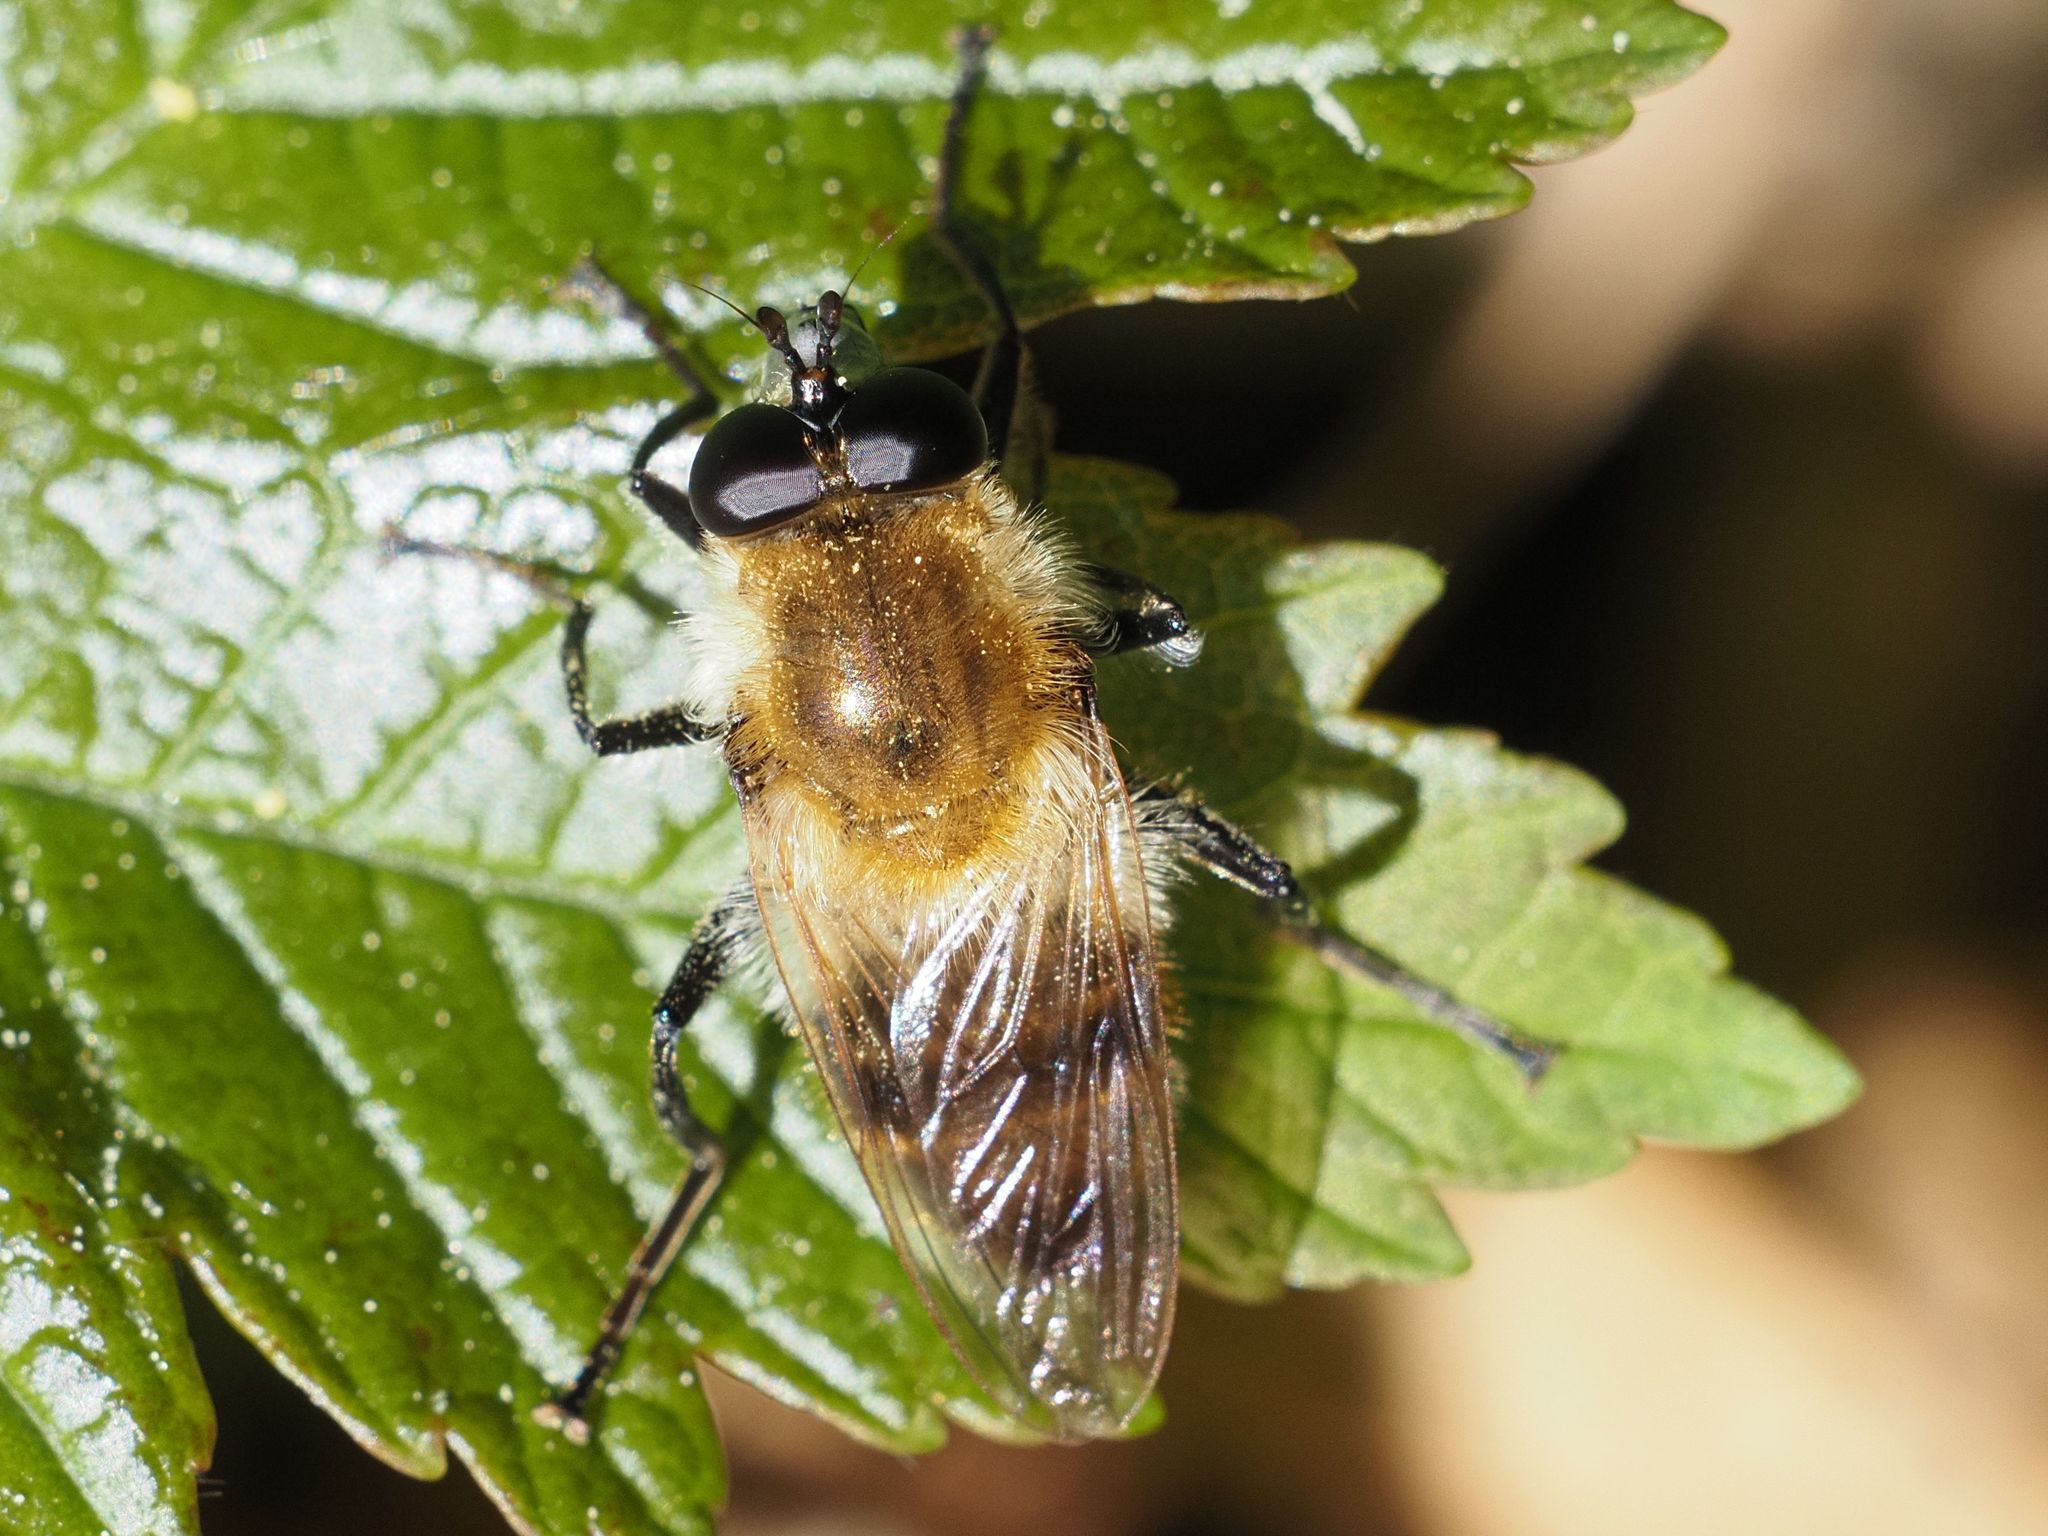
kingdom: Animalia
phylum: Arthropoda
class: Insecta
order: Diptera
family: Syrphidae
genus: Criorhina
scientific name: Criorhina floccosa
